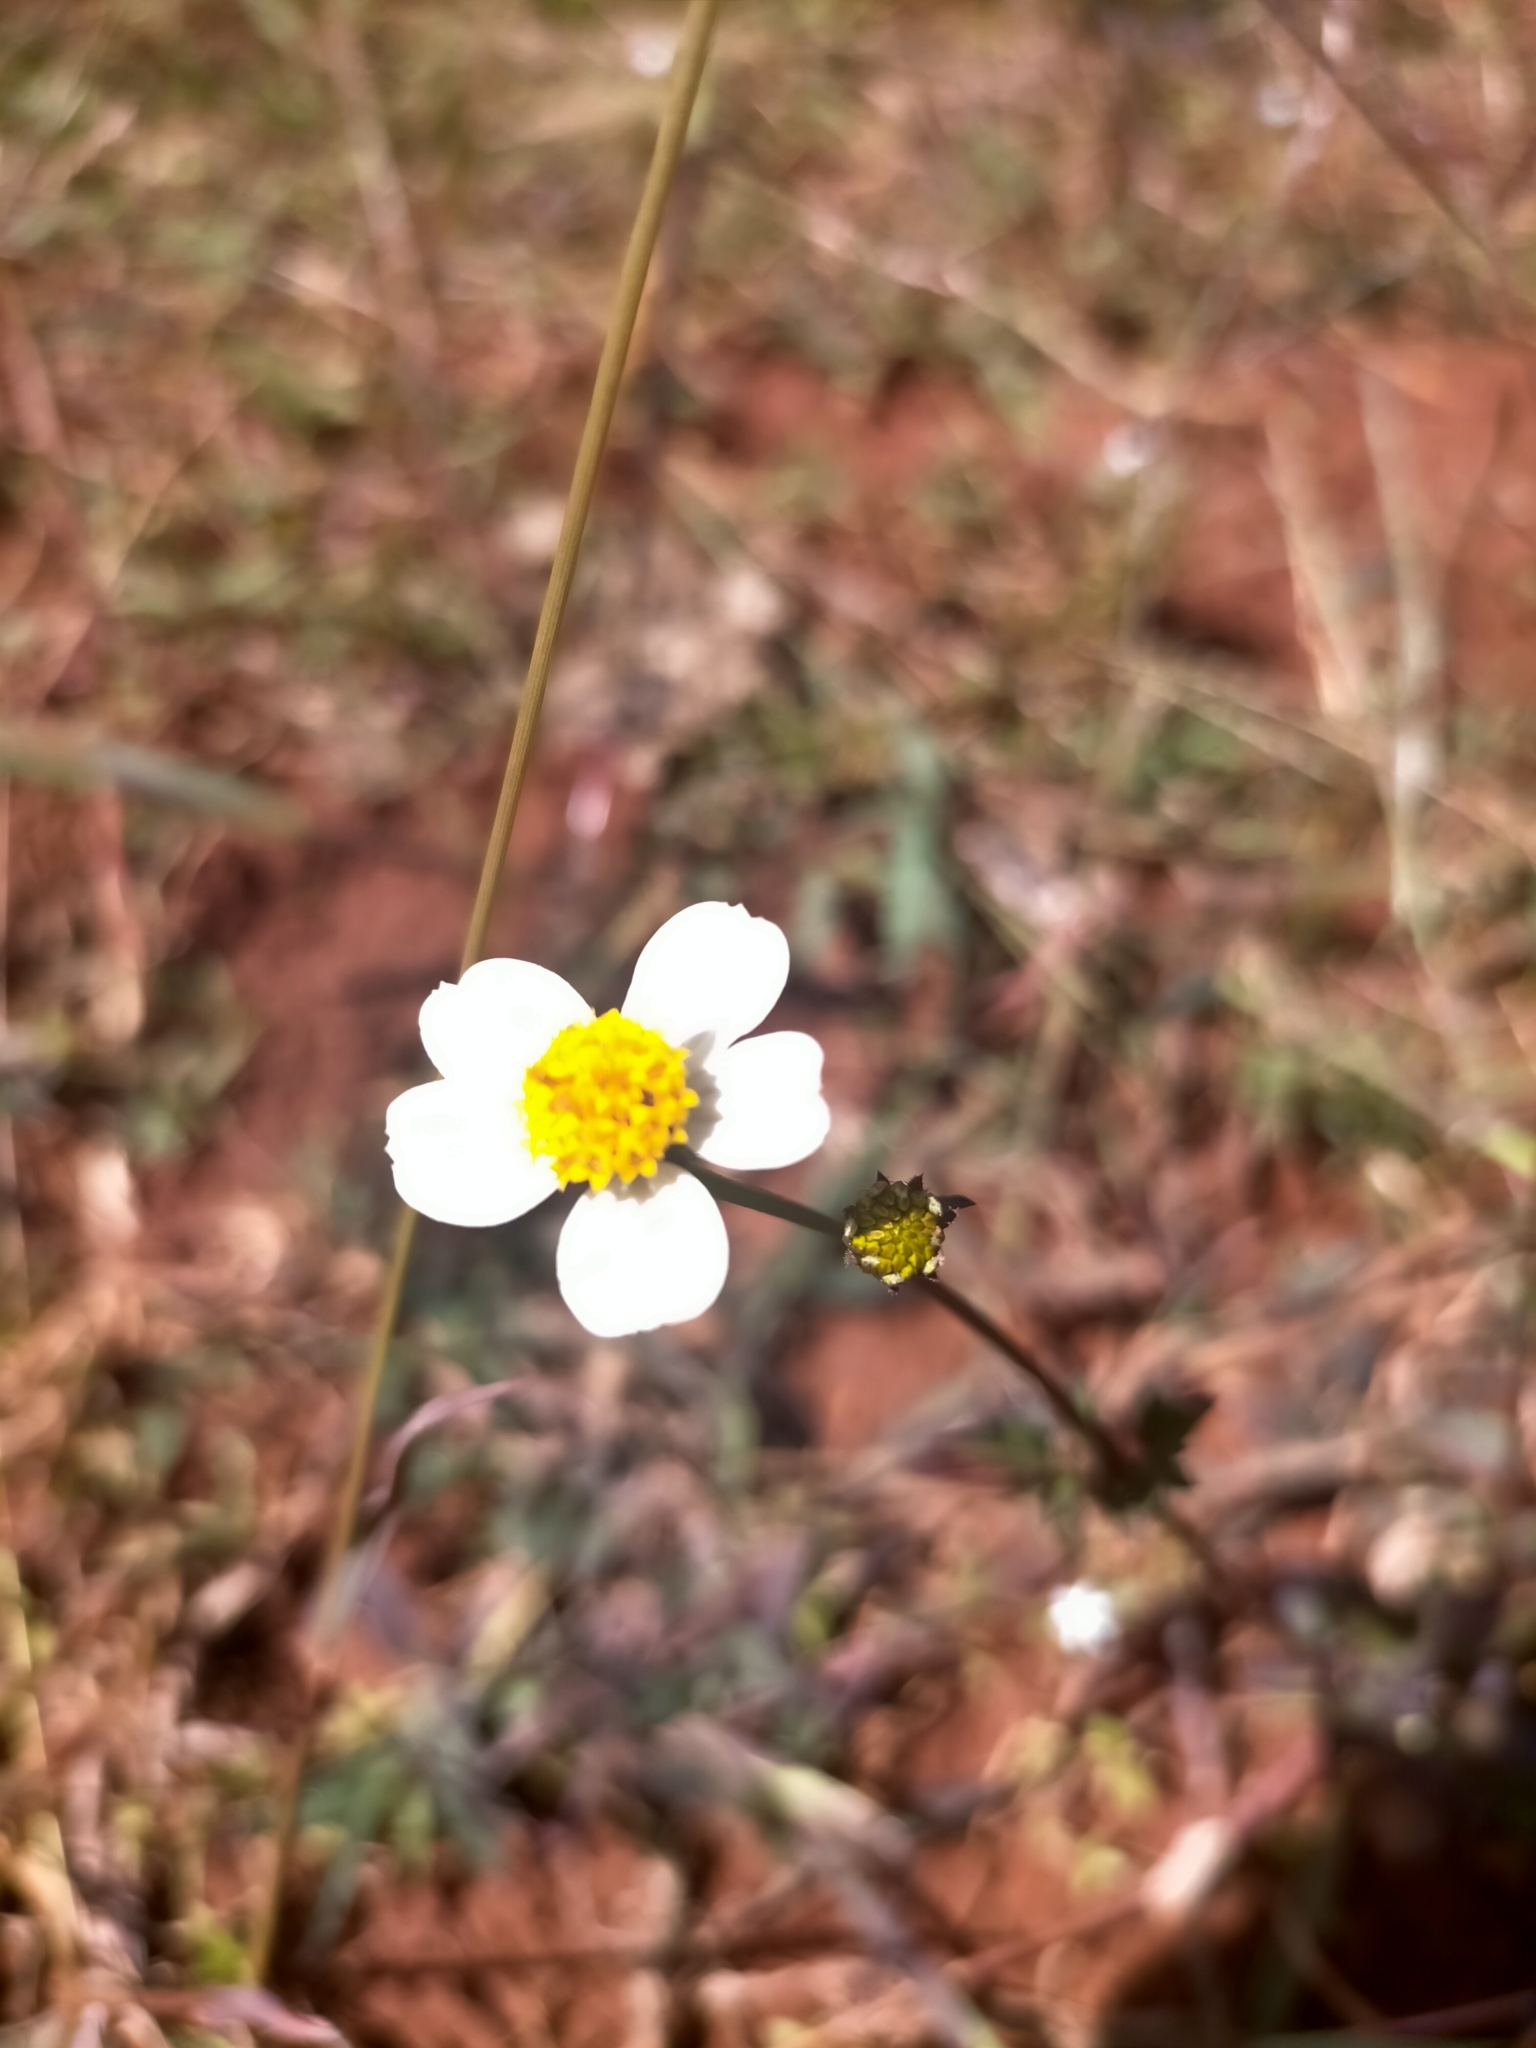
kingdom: Plantae
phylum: Tracheophyta
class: Magnoliopsida
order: Asterales
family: Asteraceae
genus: Bidens
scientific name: Bidens pilosa
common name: Black-jack
